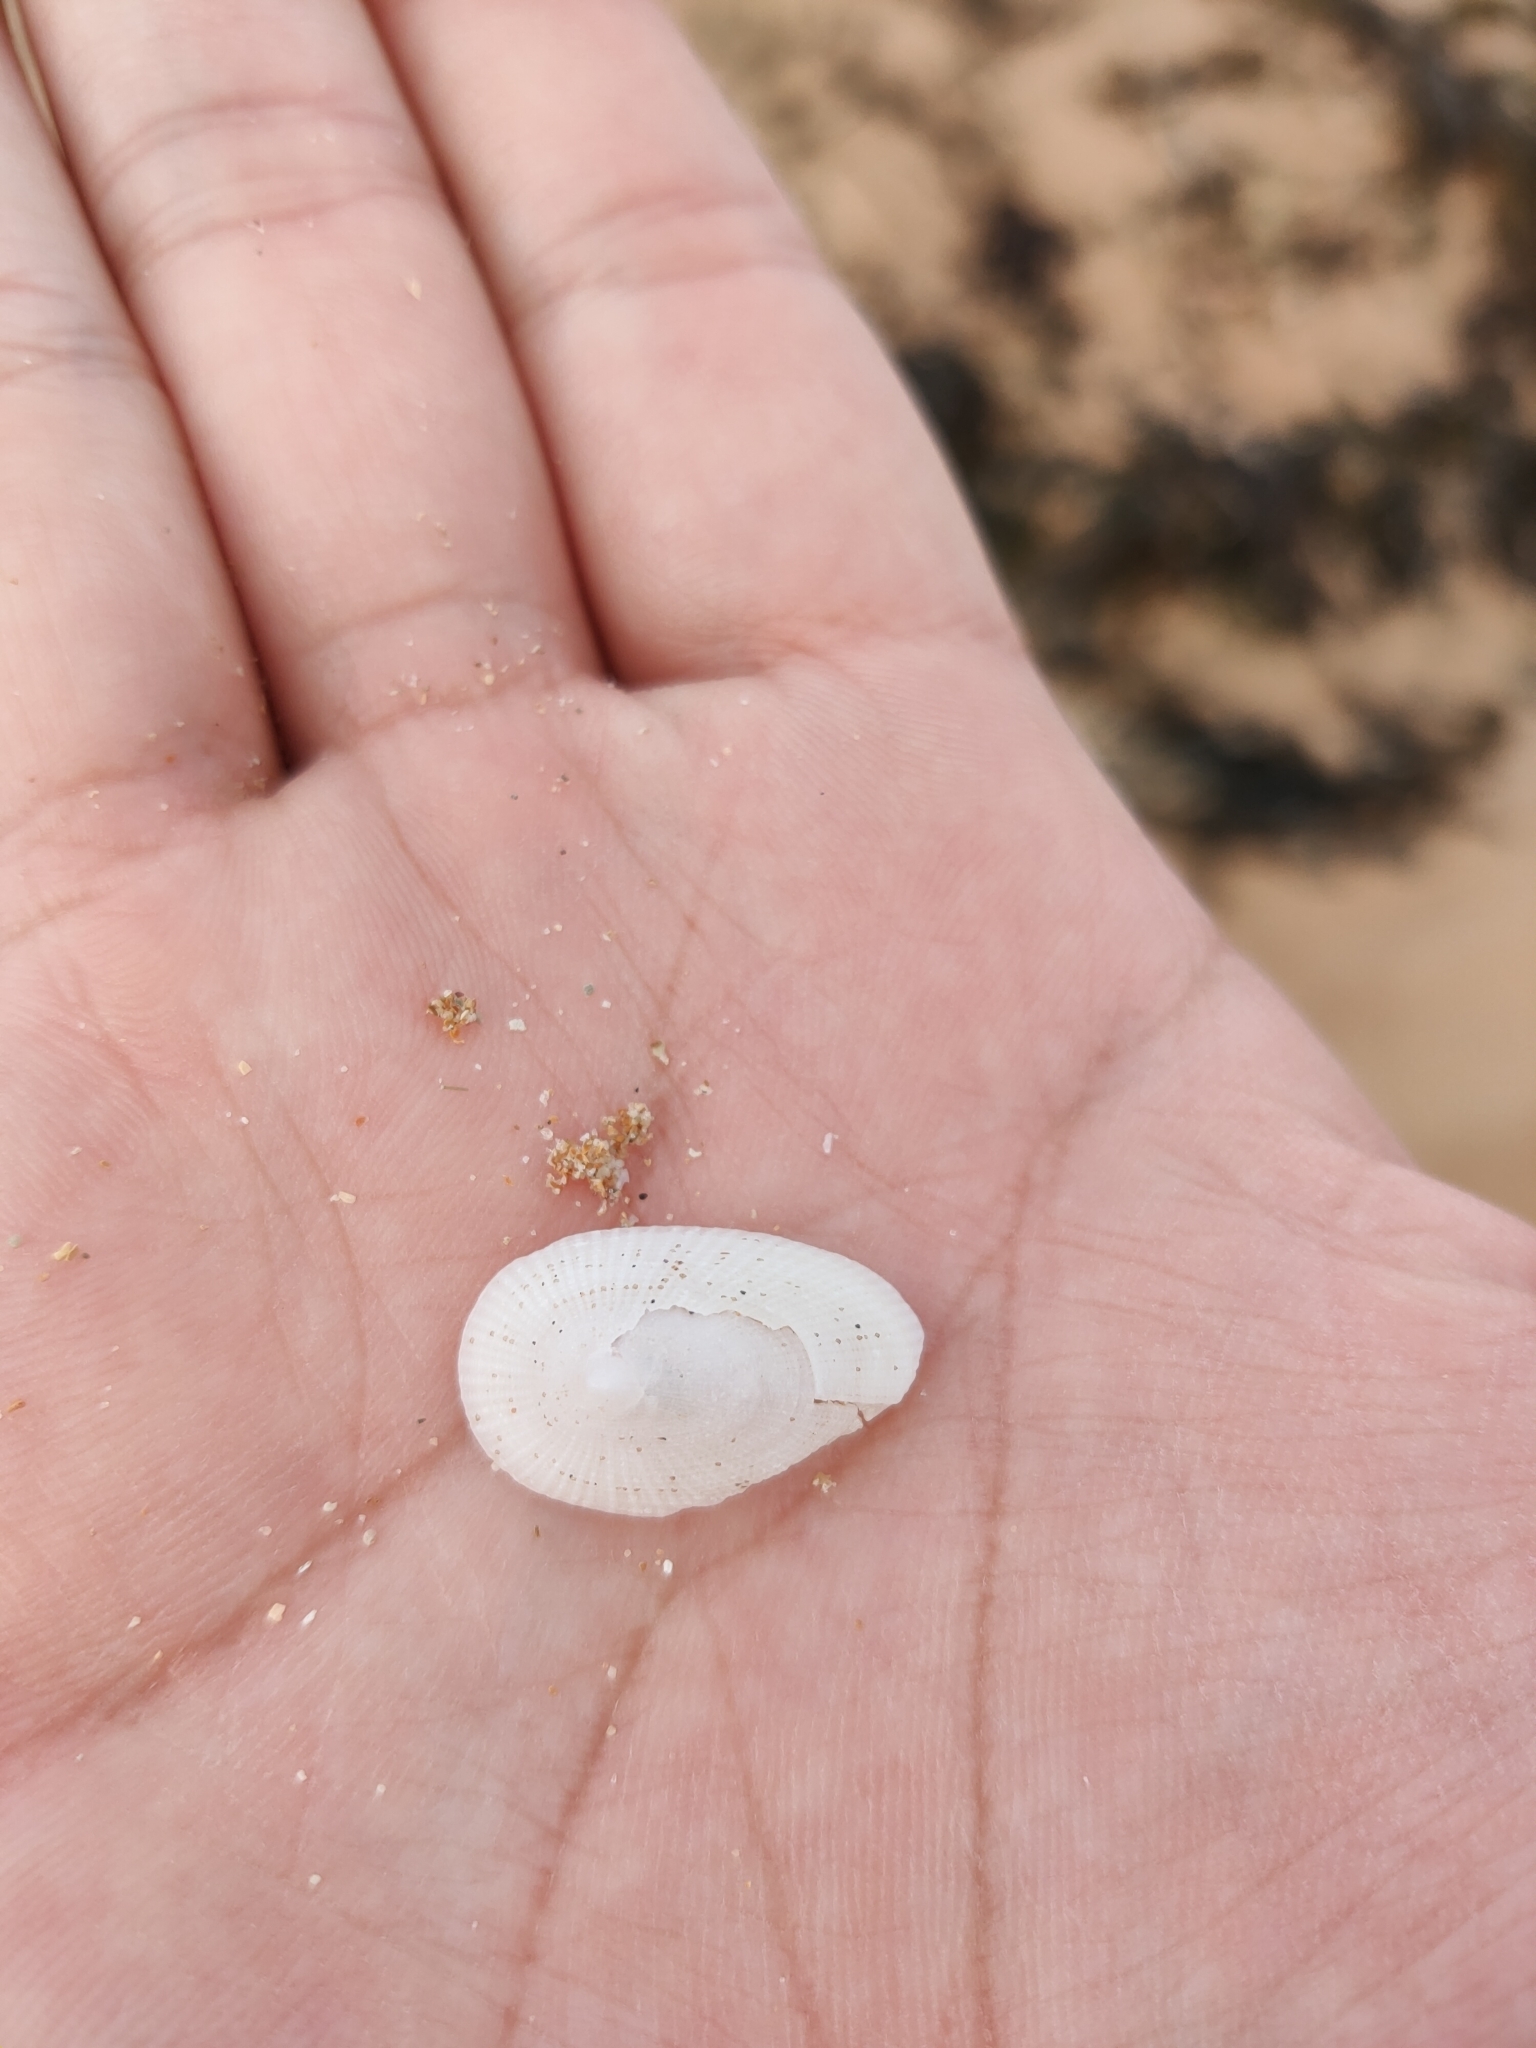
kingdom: Animalia
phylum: Mollusca
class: Gastropoda
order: Lepetellida
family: Fissurellidae
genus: Tugali
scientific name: Tugali parmophoidea
